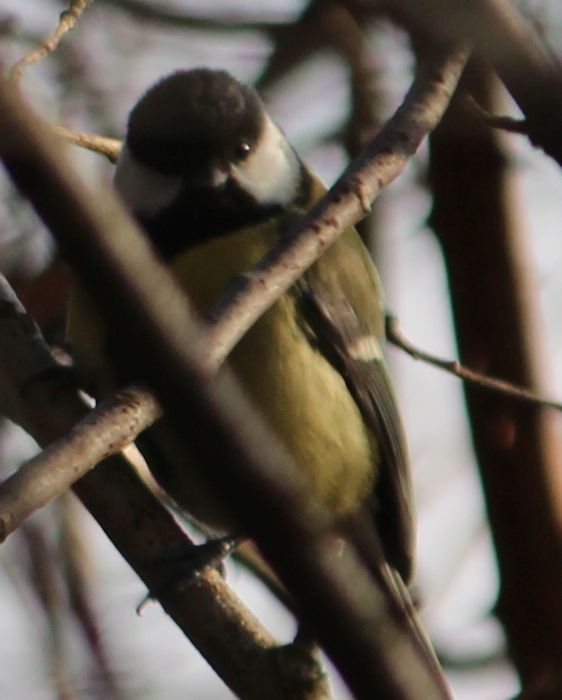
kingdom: Animalia
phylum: Chordata
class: Aves
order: Passeriformes
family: Paridae
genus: Parus
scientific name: Parus major
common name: Great tit
